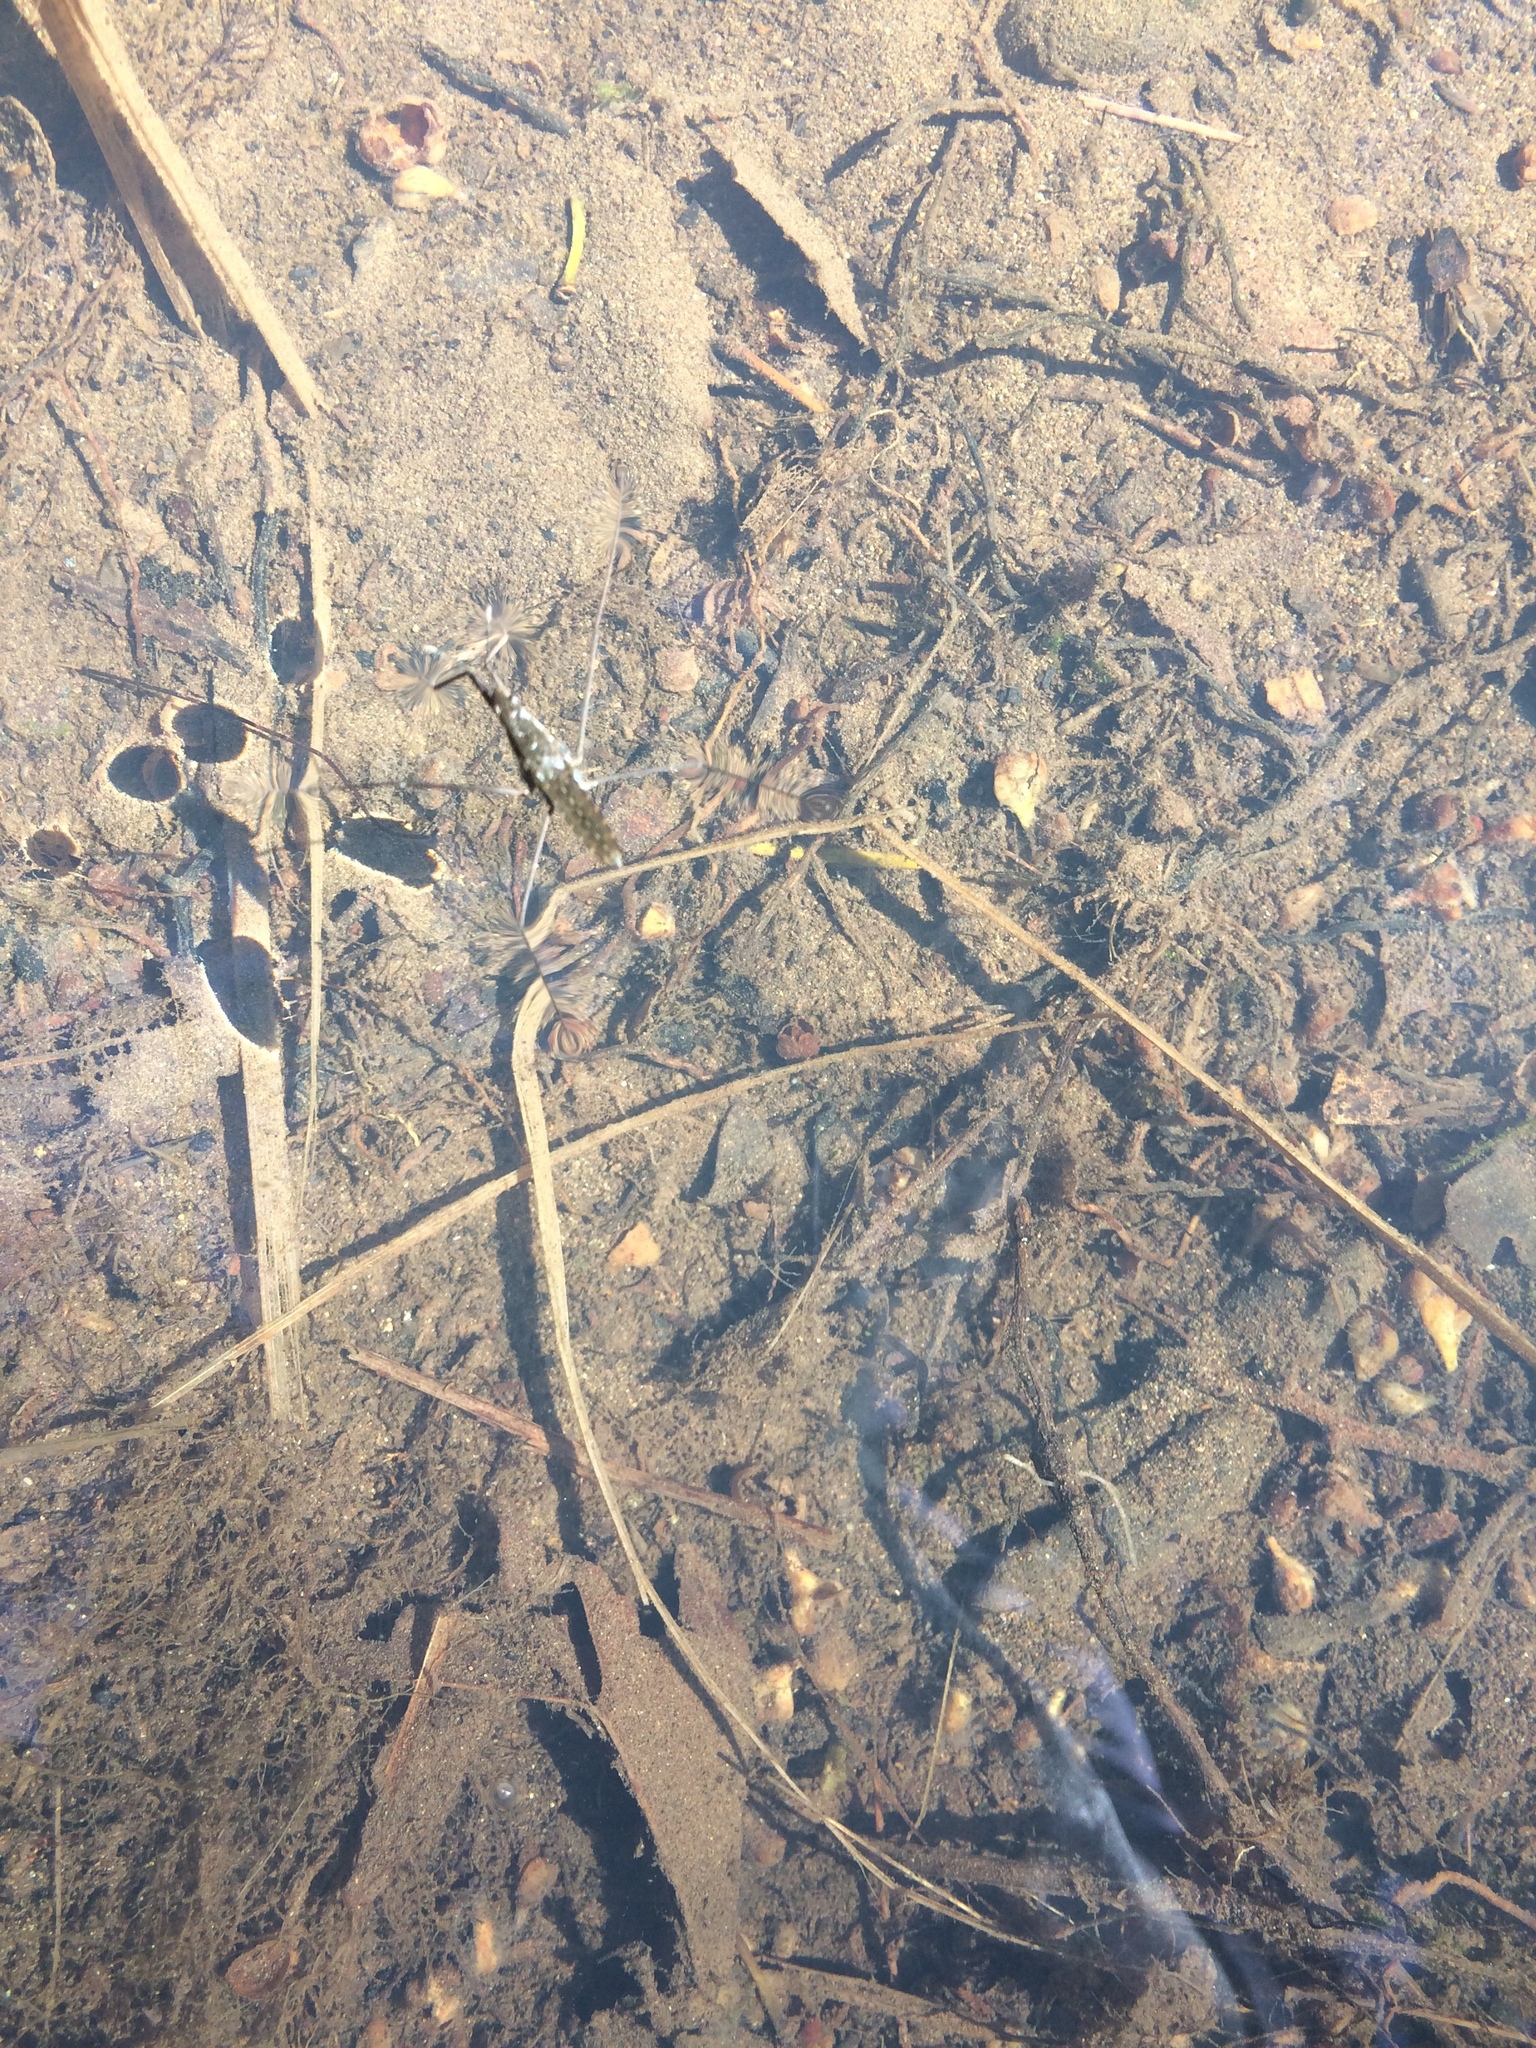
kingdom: Animalia
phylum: Arthropoda
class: Insecta
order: Hemiptera
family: Gerridae
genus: Aquarius
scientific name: Aquarius remigis
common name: Common water strider
